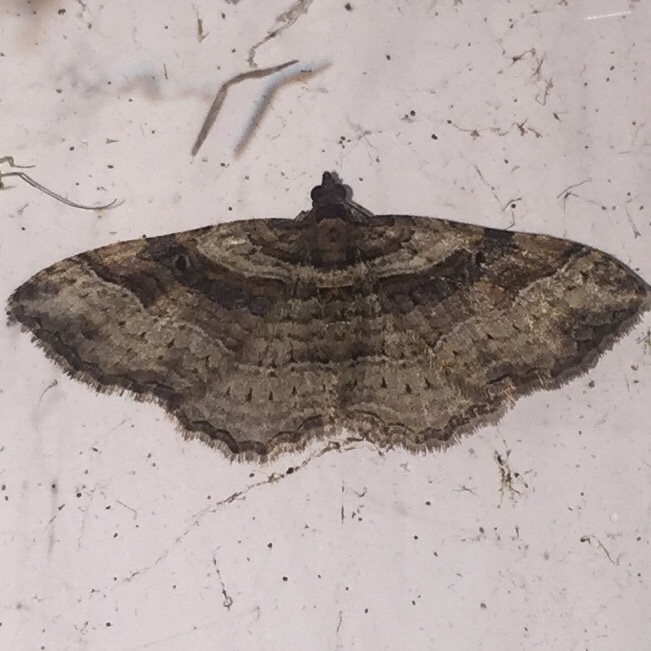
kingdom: Animalia
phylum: Arthropoda
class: Insecta
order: Lepidoptera
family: Geometridae
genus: Costaconvexa
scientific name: Costaconvexa centrostrigaria
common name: Bent-line carpet
